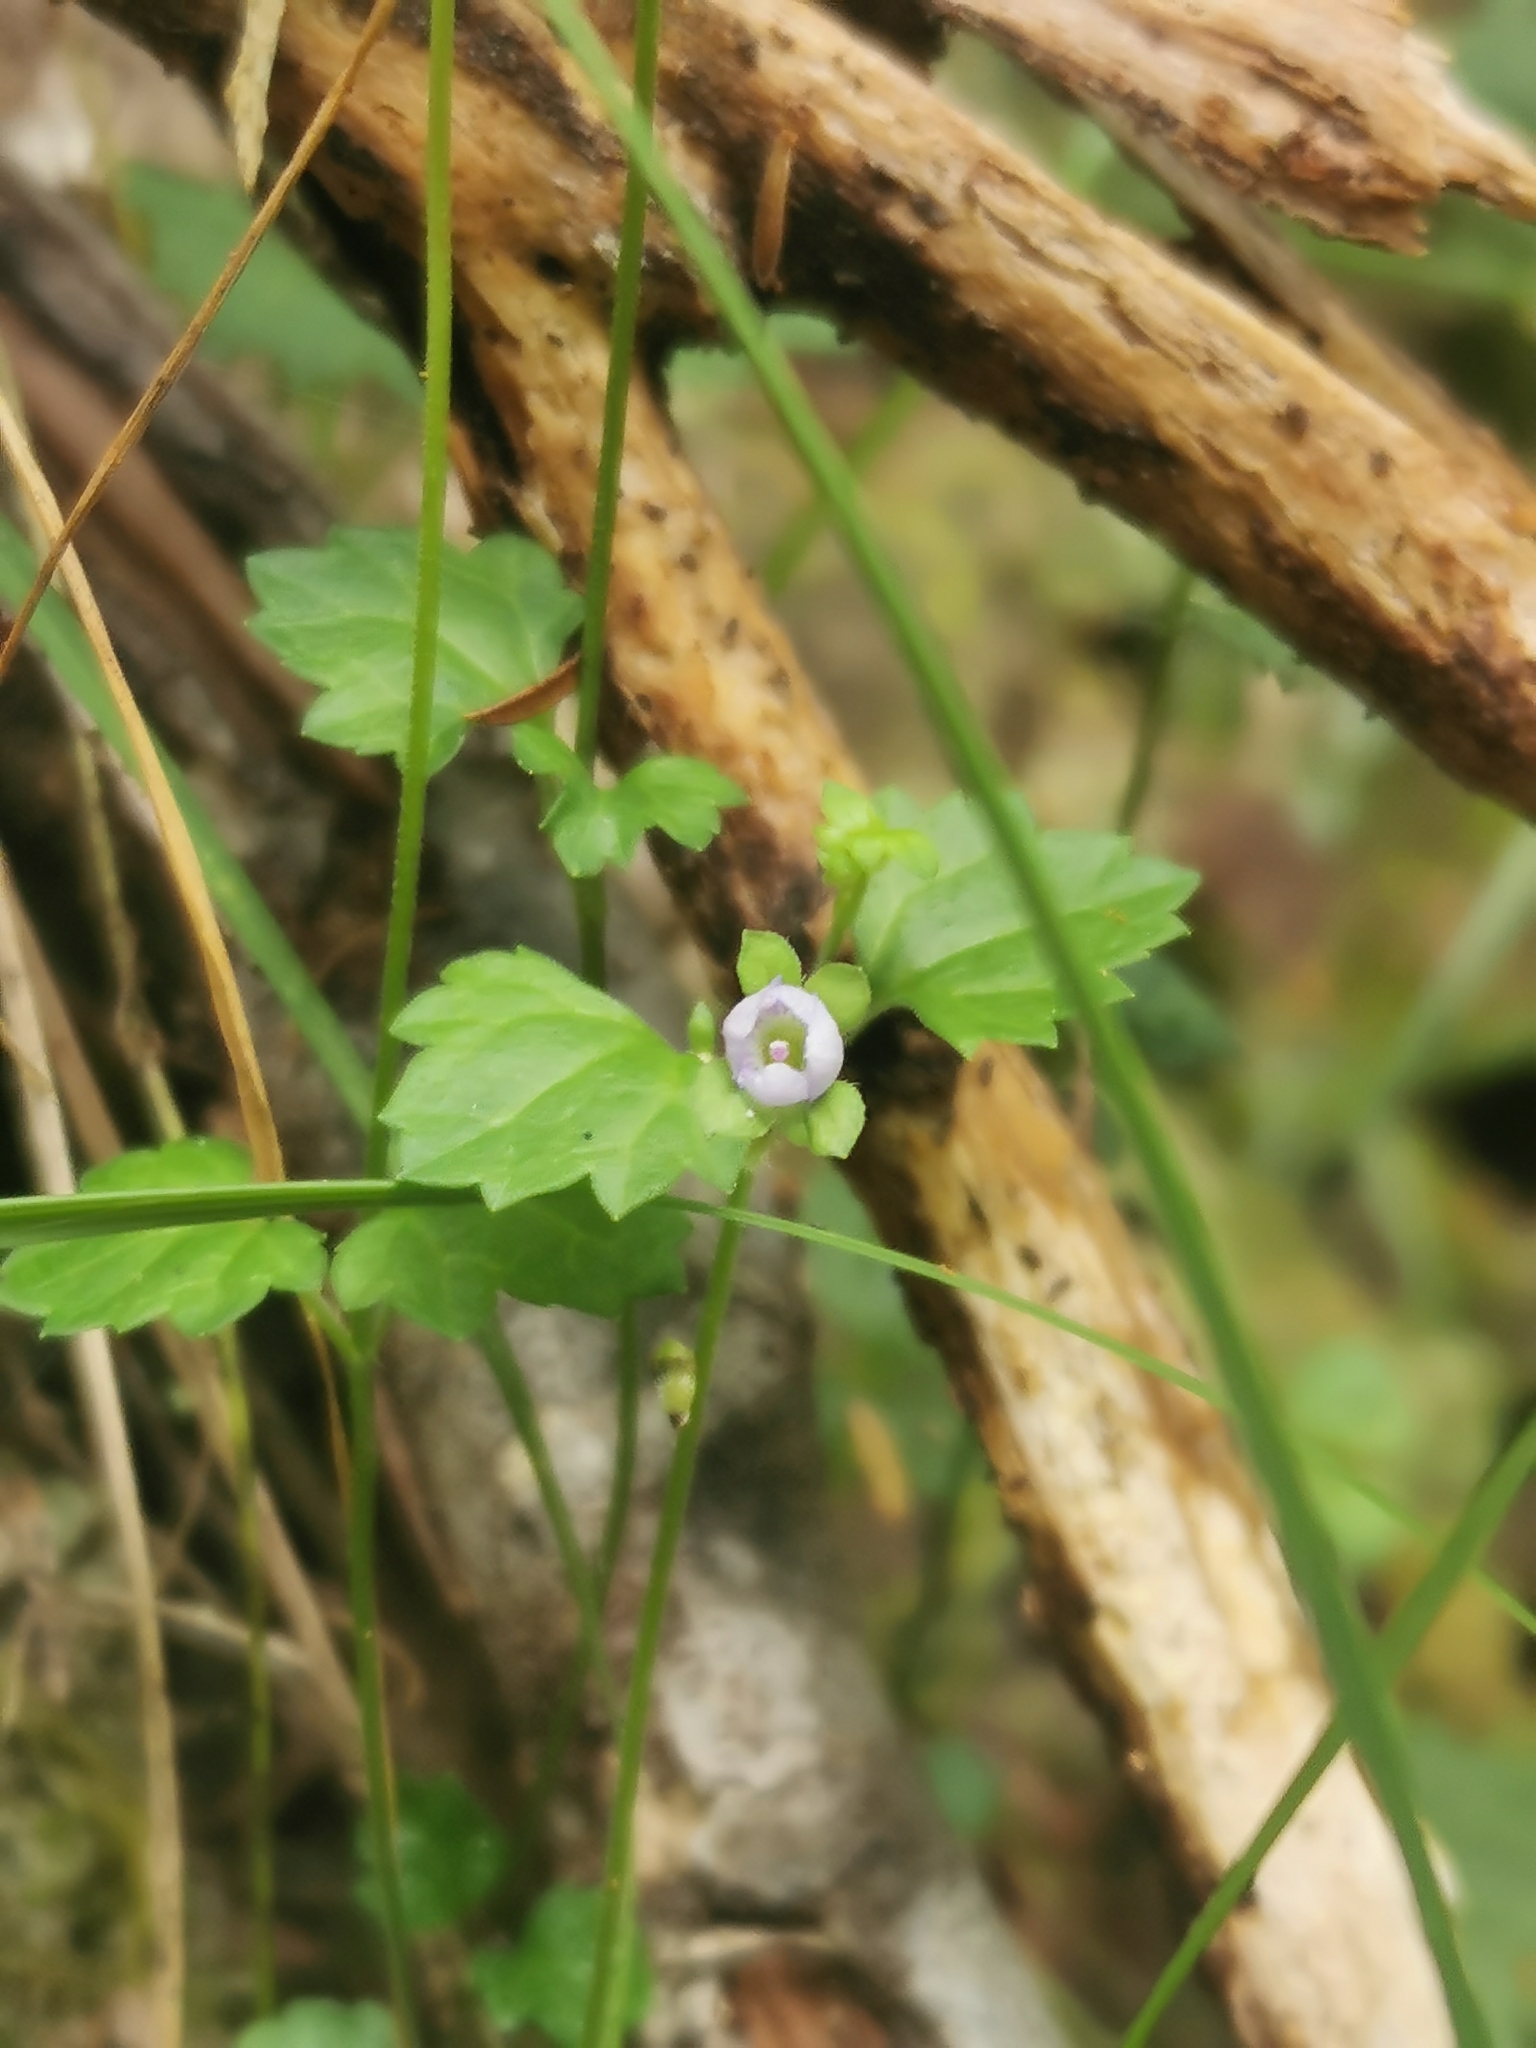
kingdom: Plantae
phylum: Tracheophyta
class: Magnoliopsida
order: Lamiales
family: Plantaginaceae
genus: Veronica
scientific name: Veronica plebeia
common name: Speedwell
